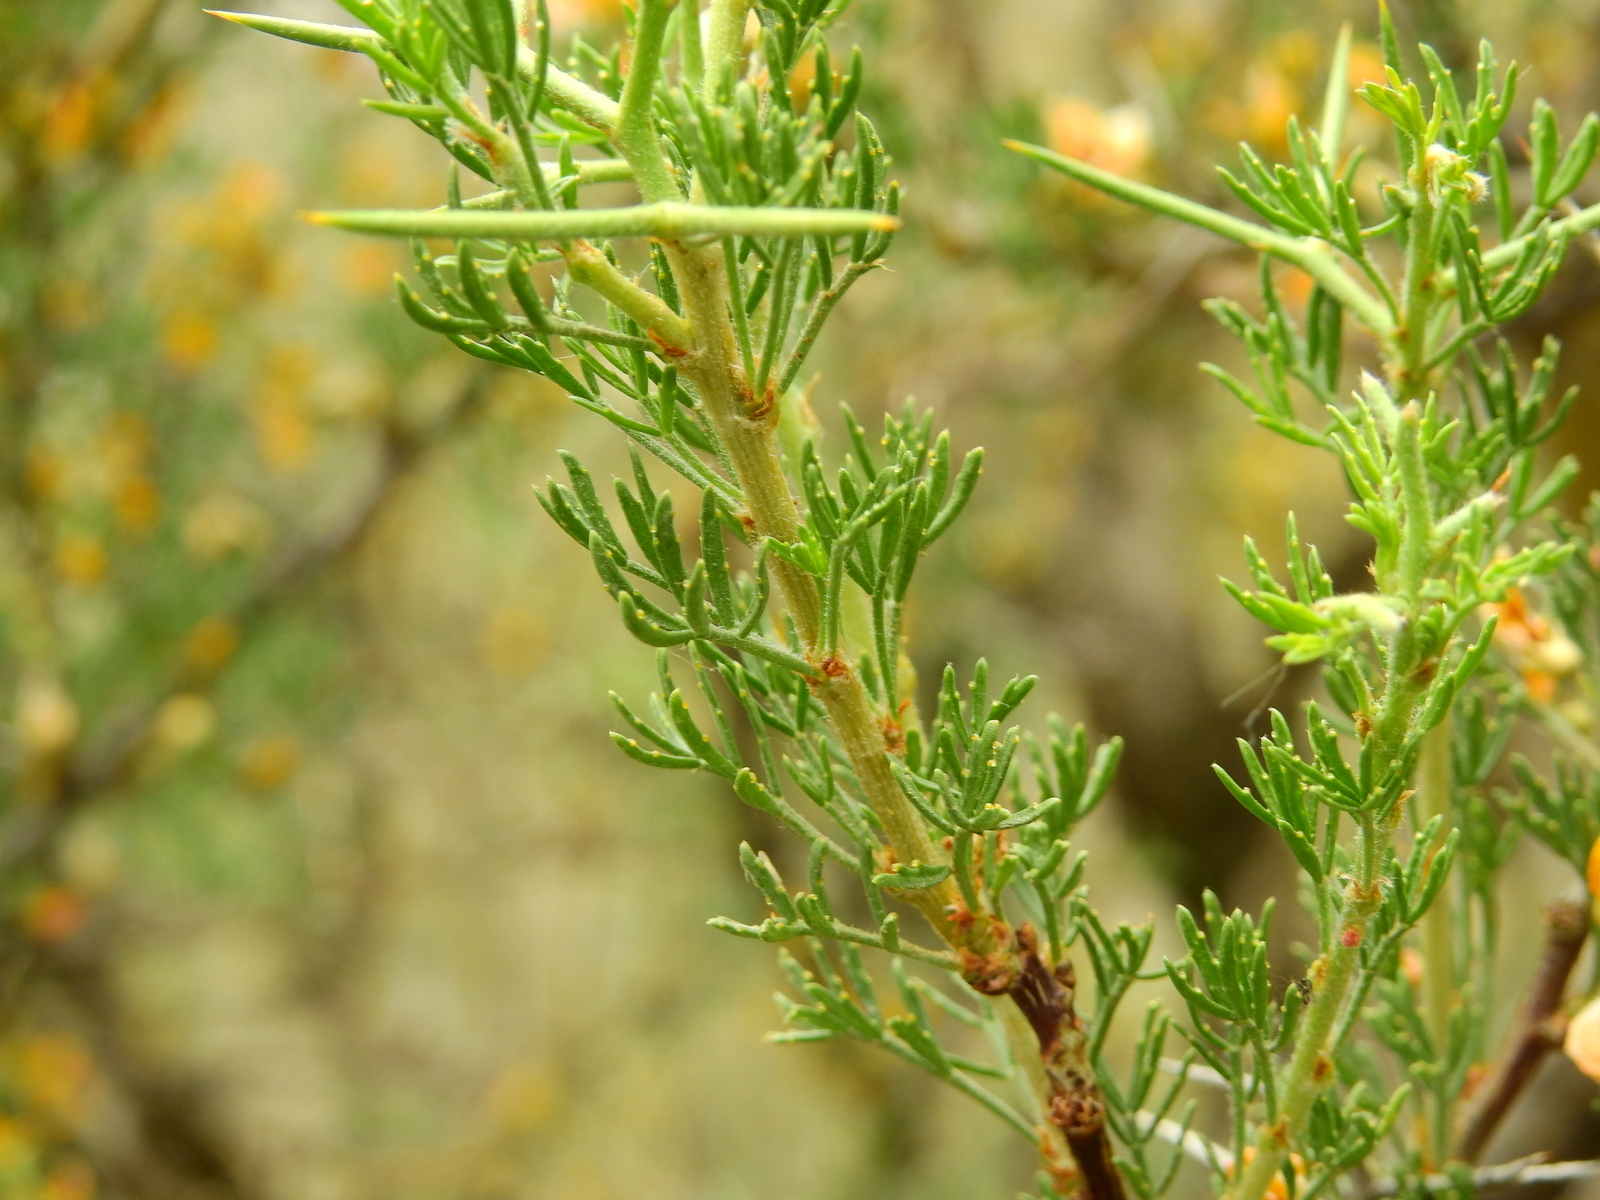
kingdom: Plantae
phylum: Tracheophyta
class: Magnoliopsida
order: Fabales
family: Fabaceae
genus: Adesmia
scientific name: Adesmia pinifolia
